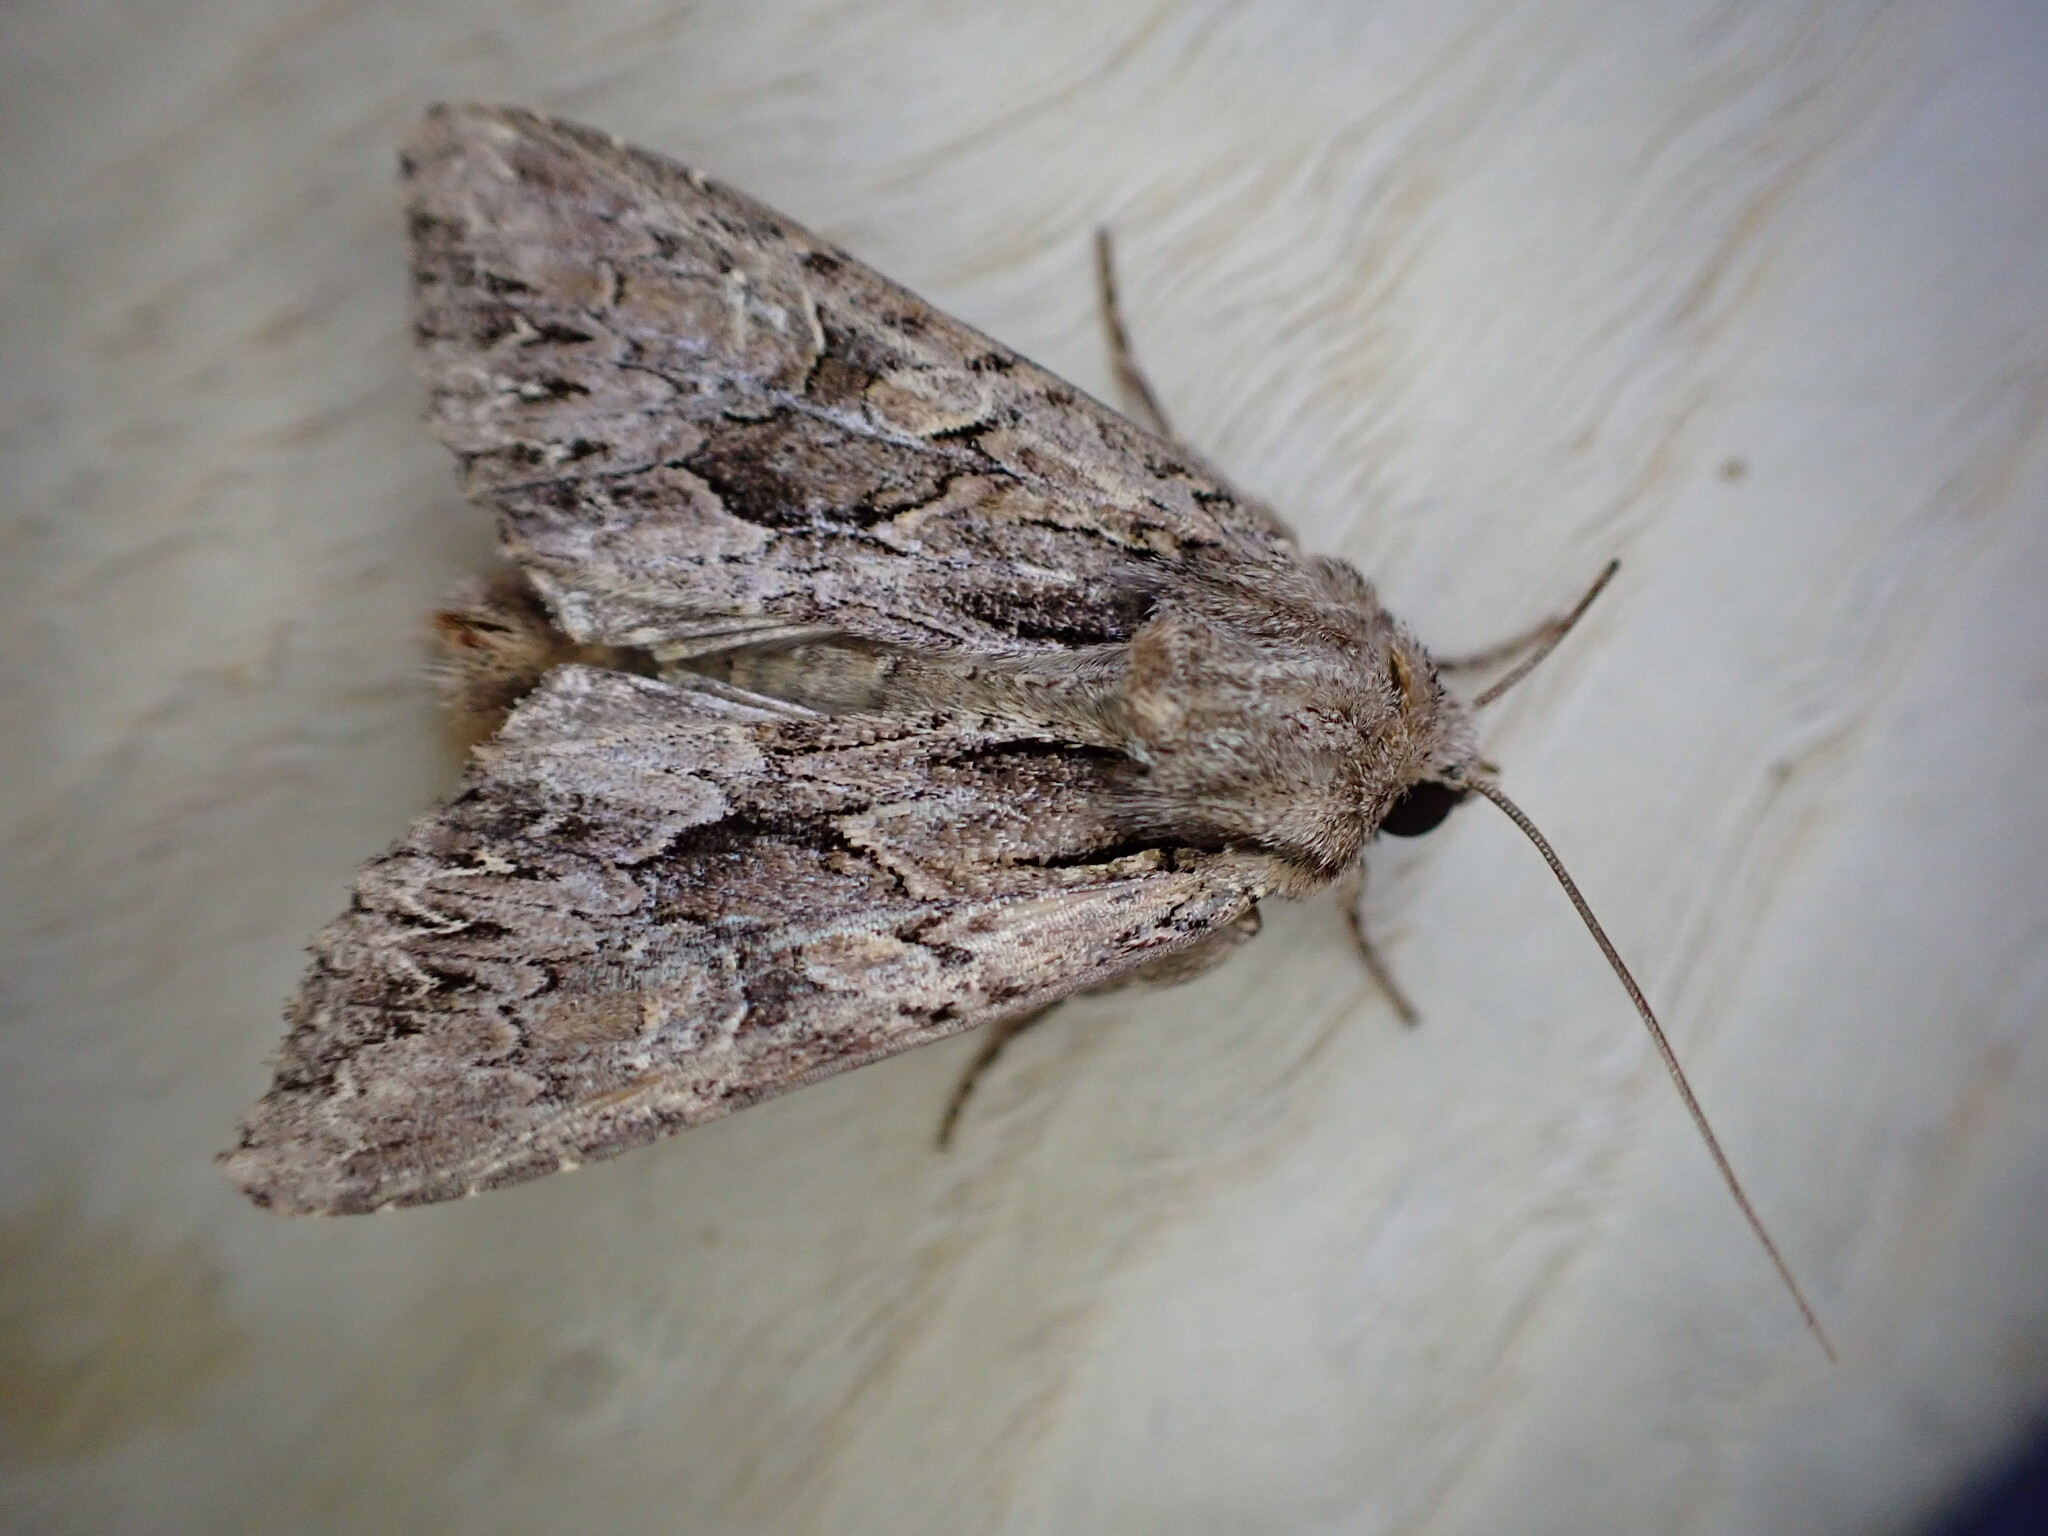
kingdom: Animalia
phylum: Arthropoda
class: Insecta
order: Lepidoptera
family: Noctuidae
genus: Apamea
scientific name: Apamea monoglypha
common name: Dark arches
